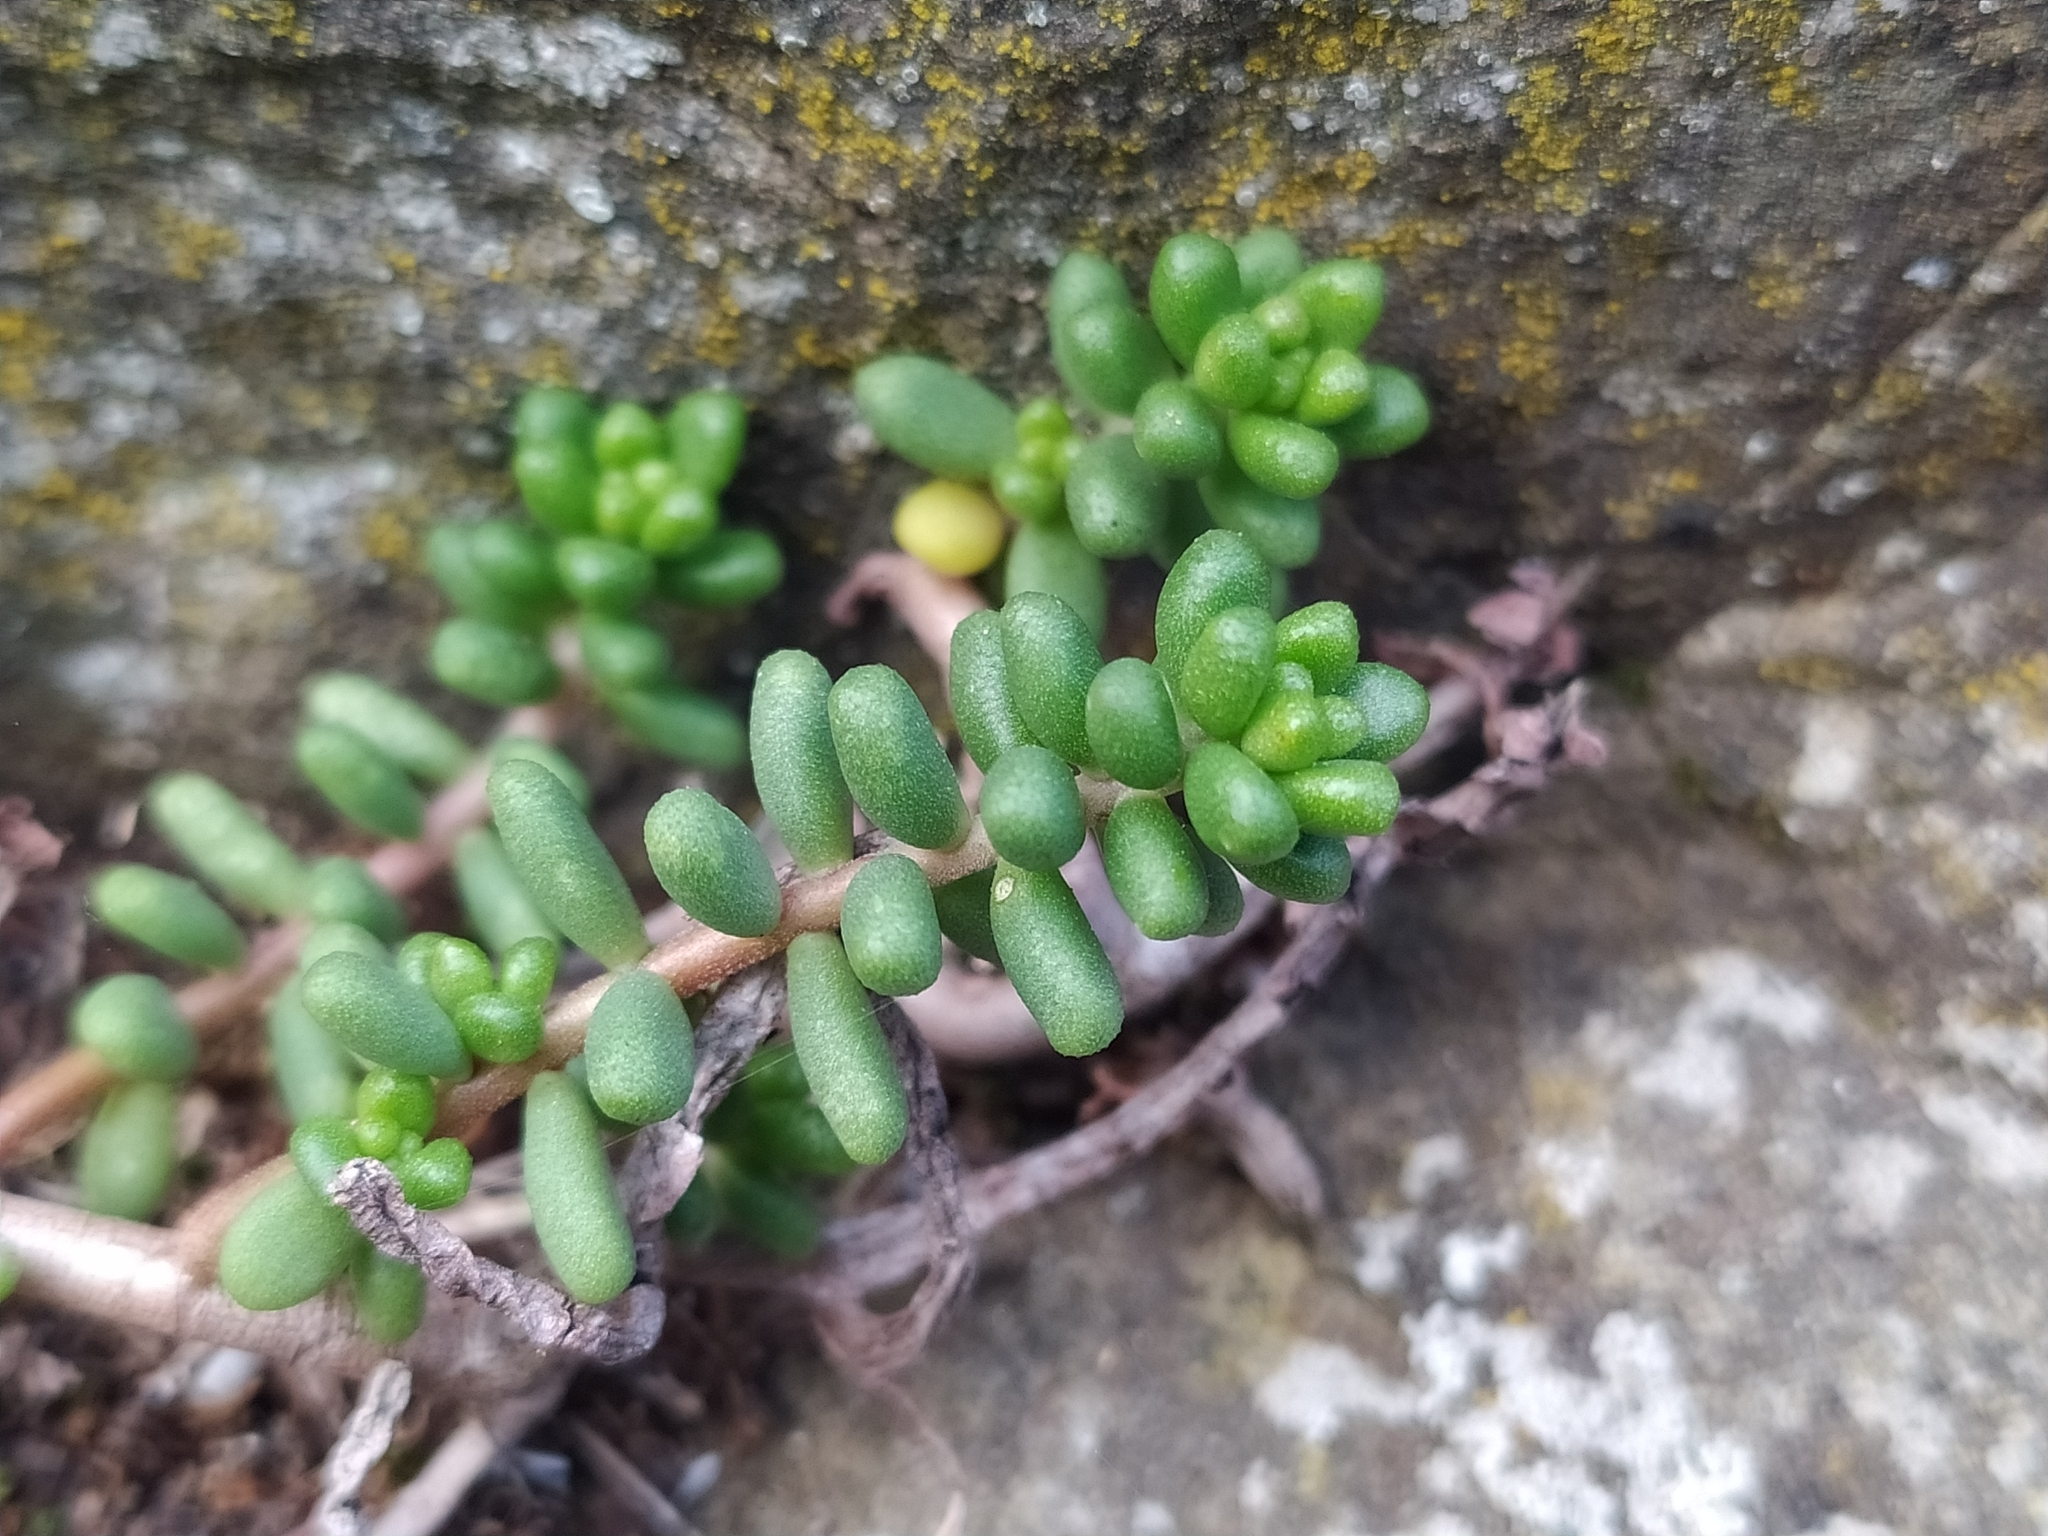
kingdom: Plantae
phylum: Tracheophyta
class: Magnoliopsida
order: Saxifragales
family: Crassulaceae
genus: Sedum
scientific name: Sedum album
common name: White stonecrop
